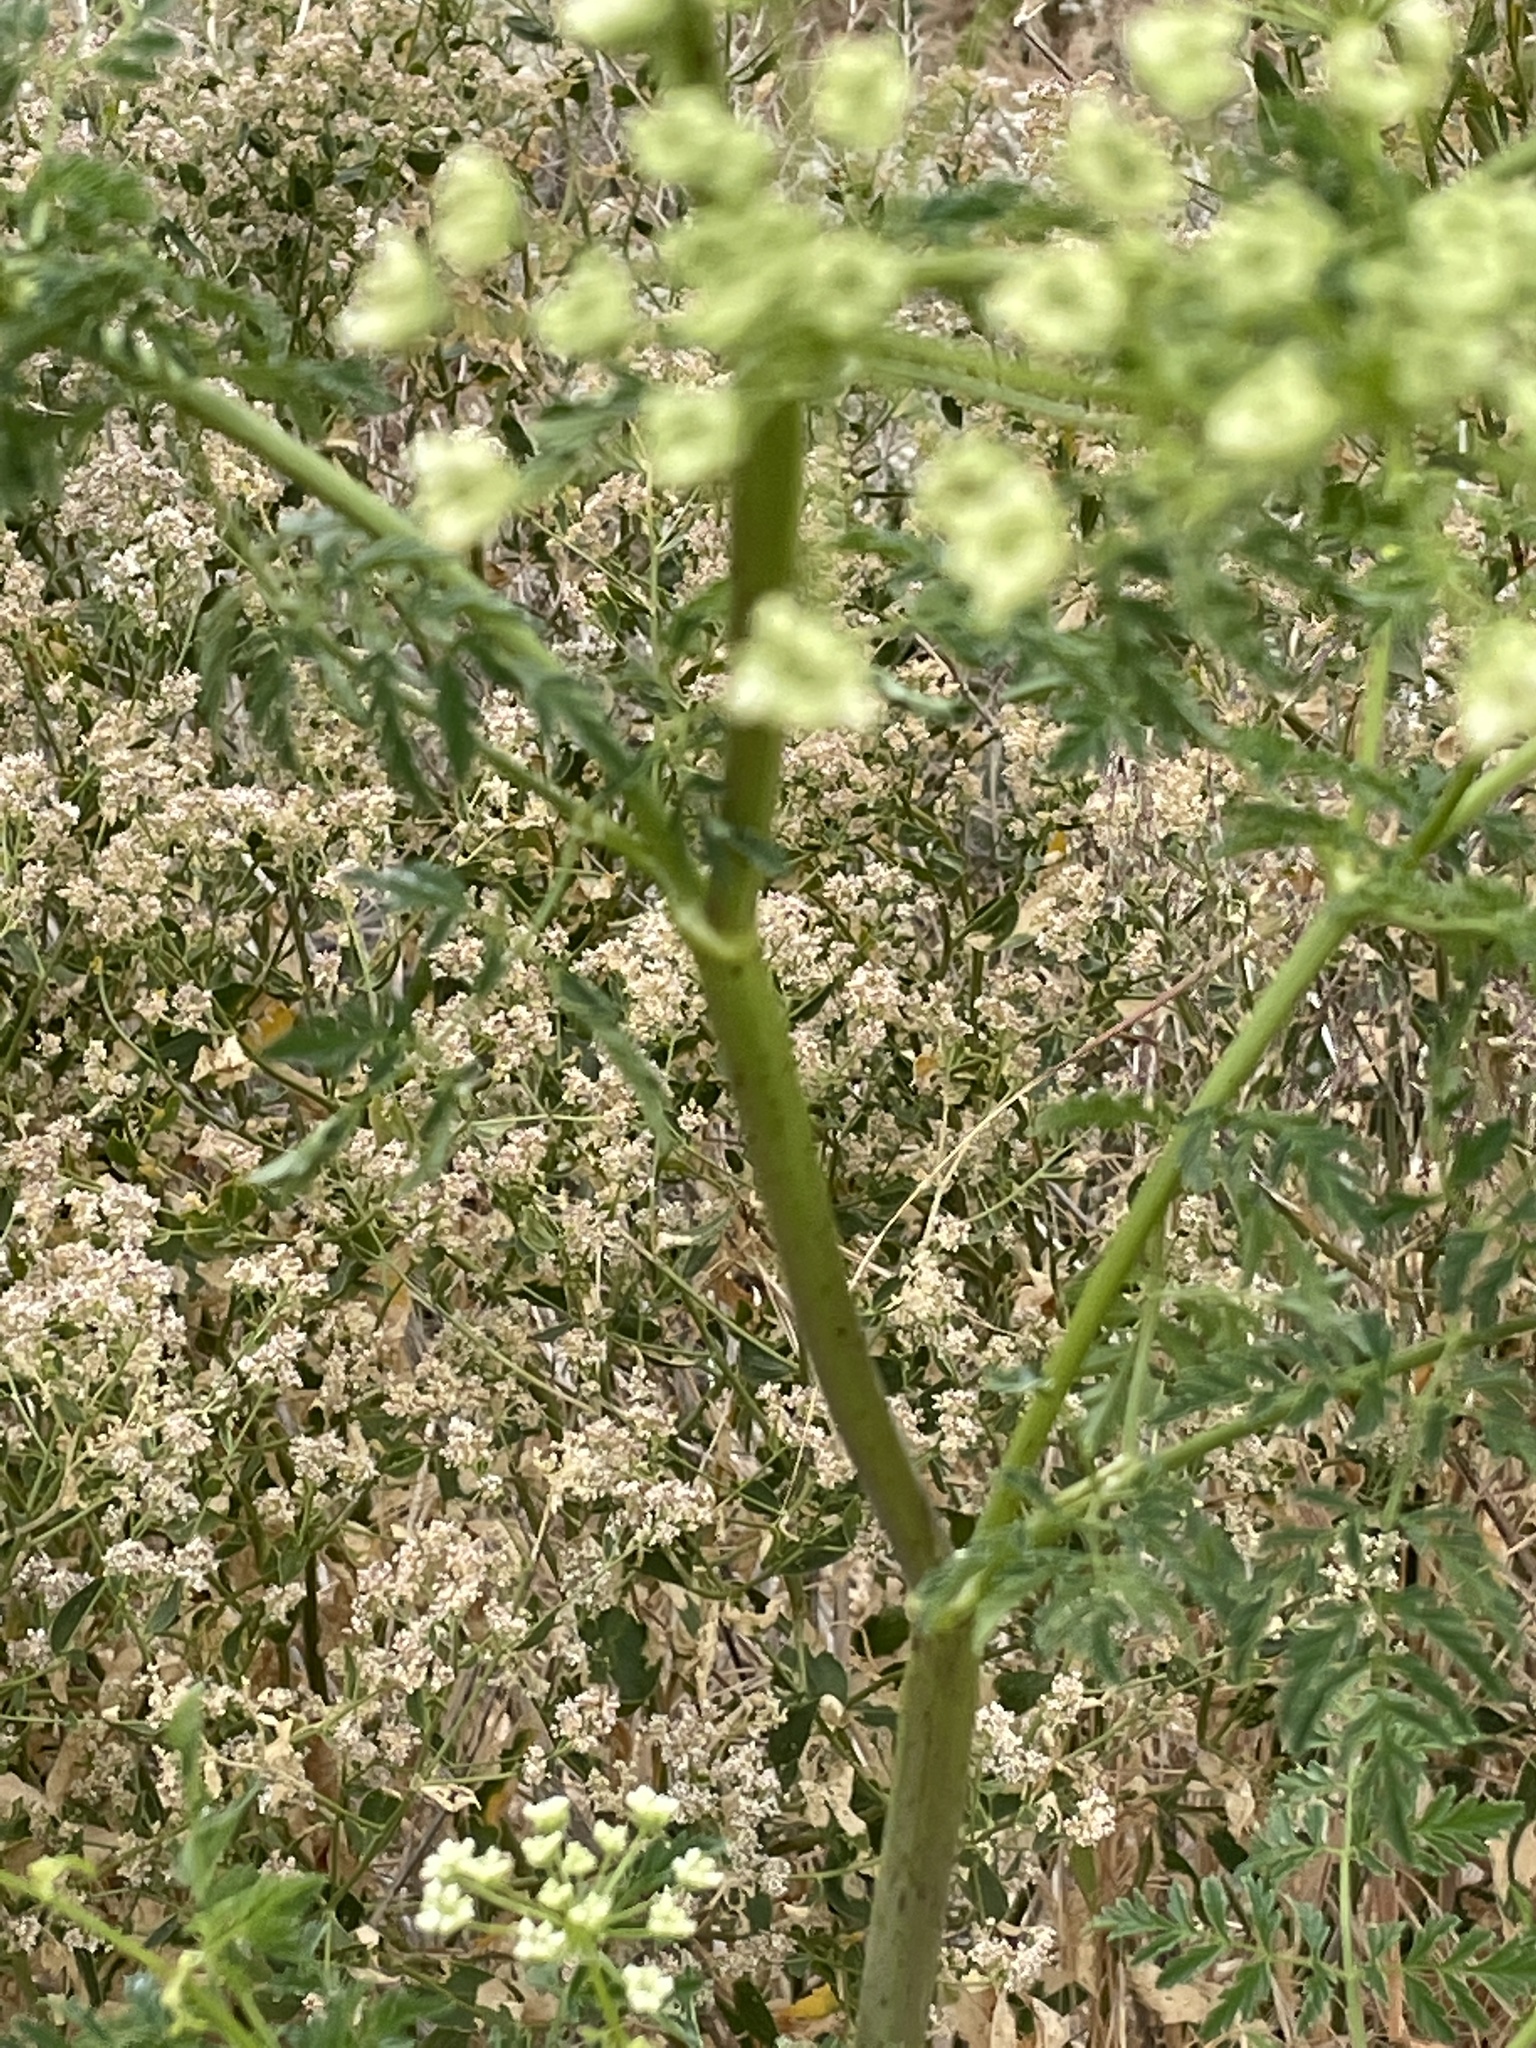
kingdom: Plantae
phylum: Tracheophyta
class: Magnoliopsida
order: Apiales
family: Apiaceae
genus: Conium
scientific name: Conium maculatum
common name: Hemlock
